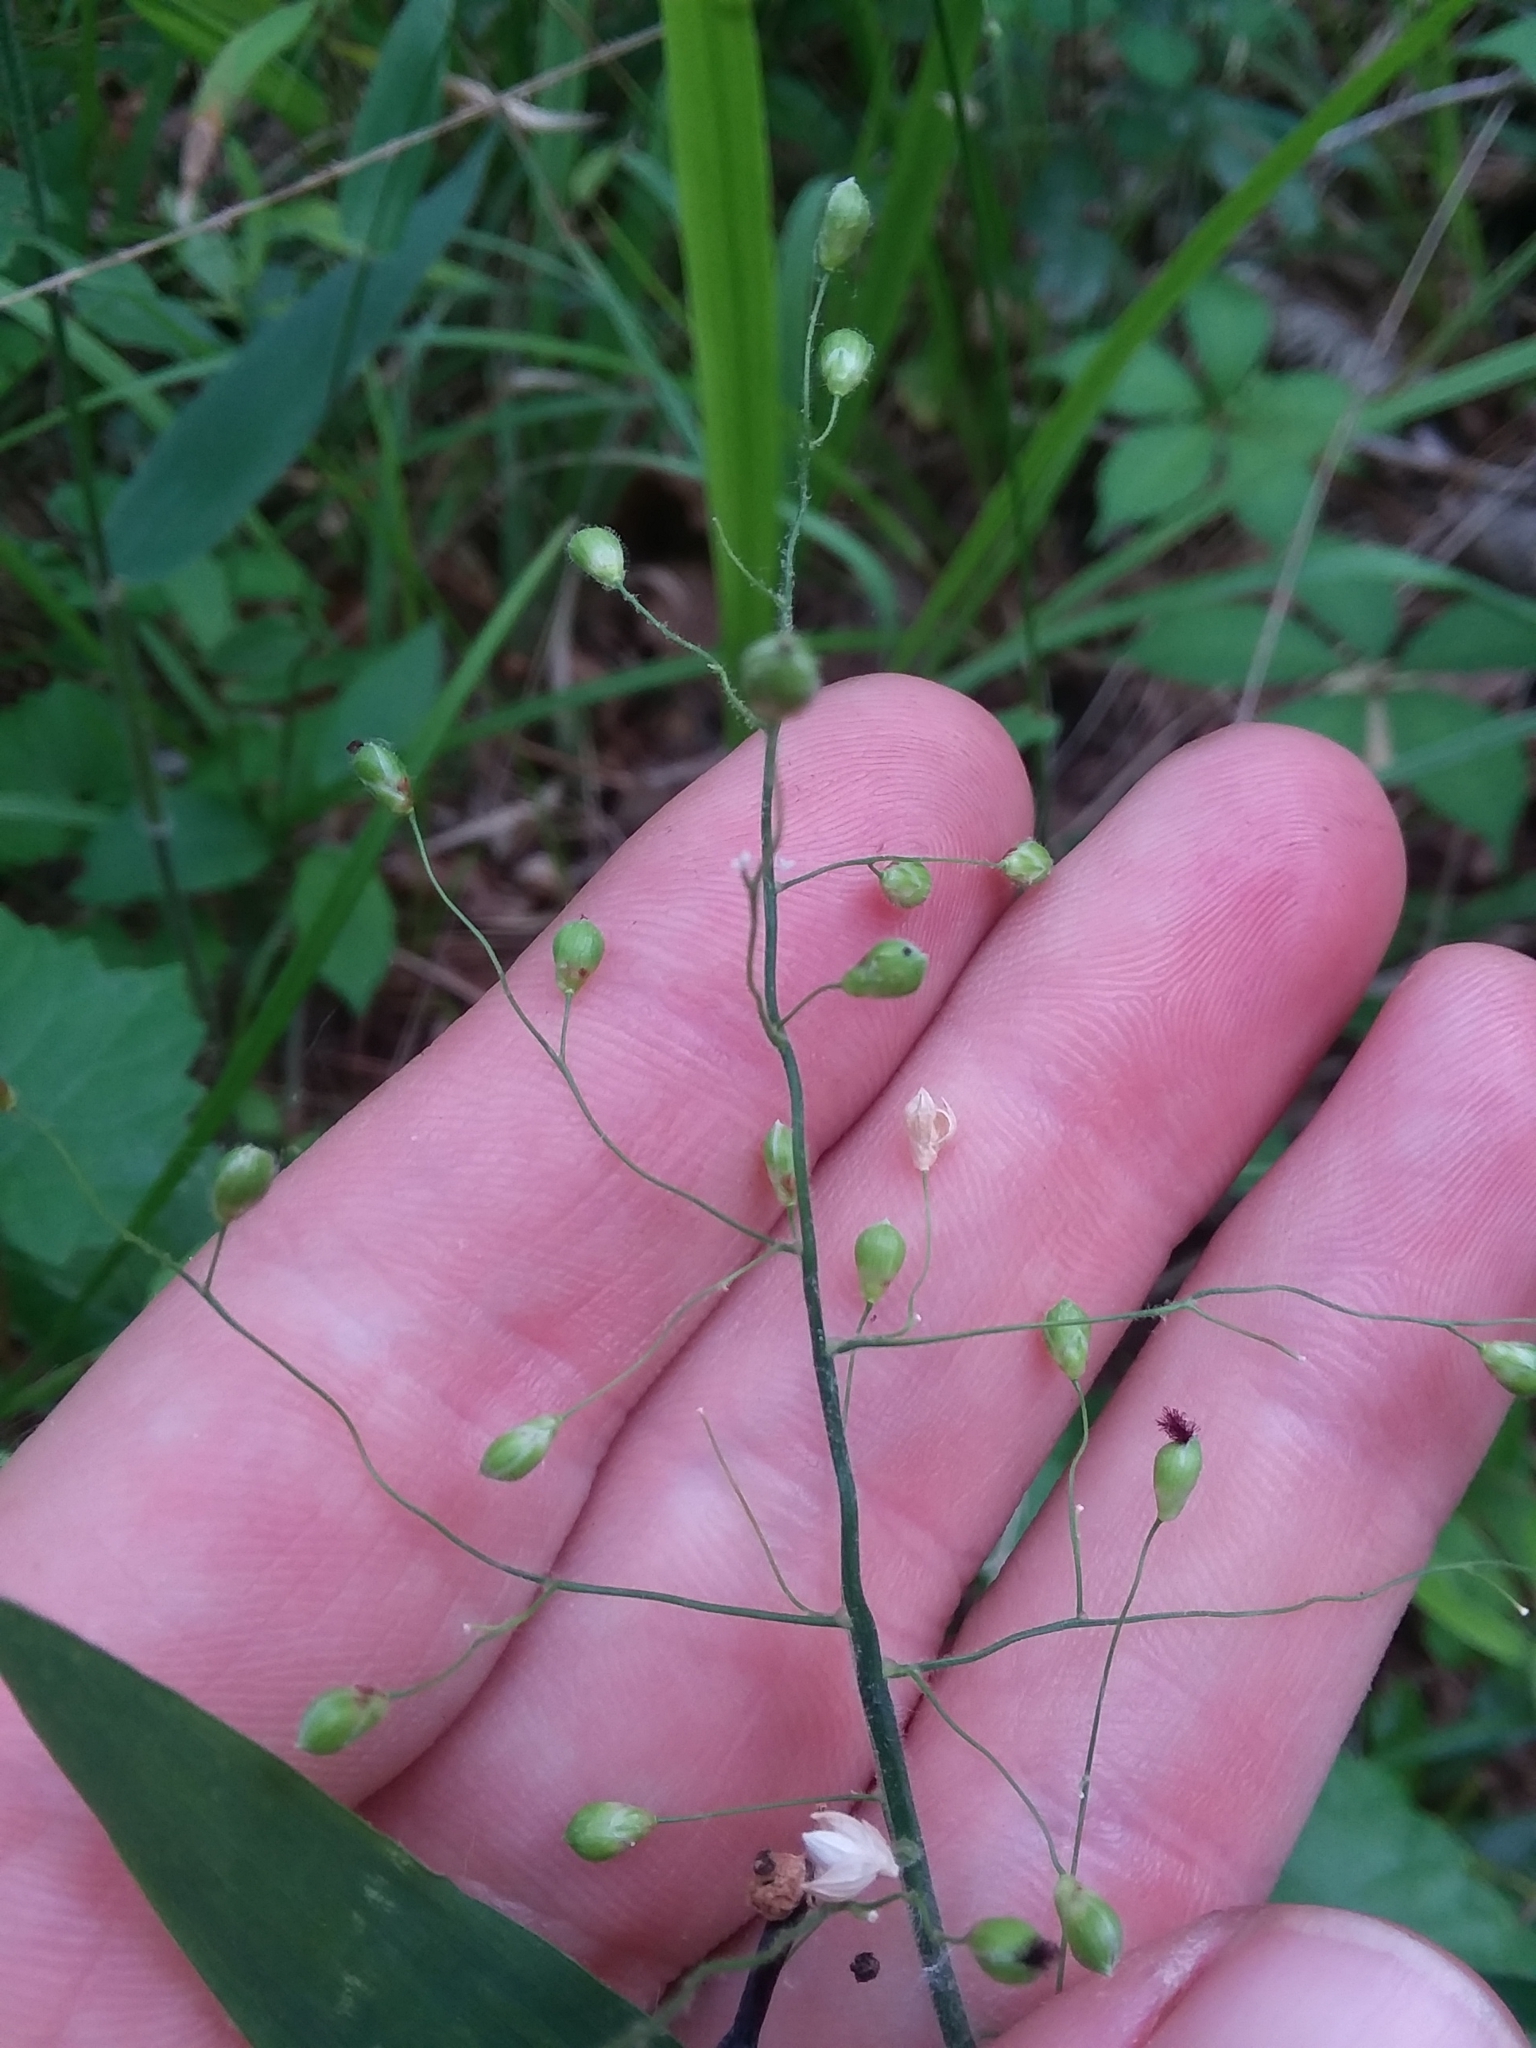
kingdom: Plantae
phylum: Tracheophyta
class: Liliopsida
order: Poales
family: Poaceae
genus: Dichanthelium
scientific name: Dichanthelium ravenelii
